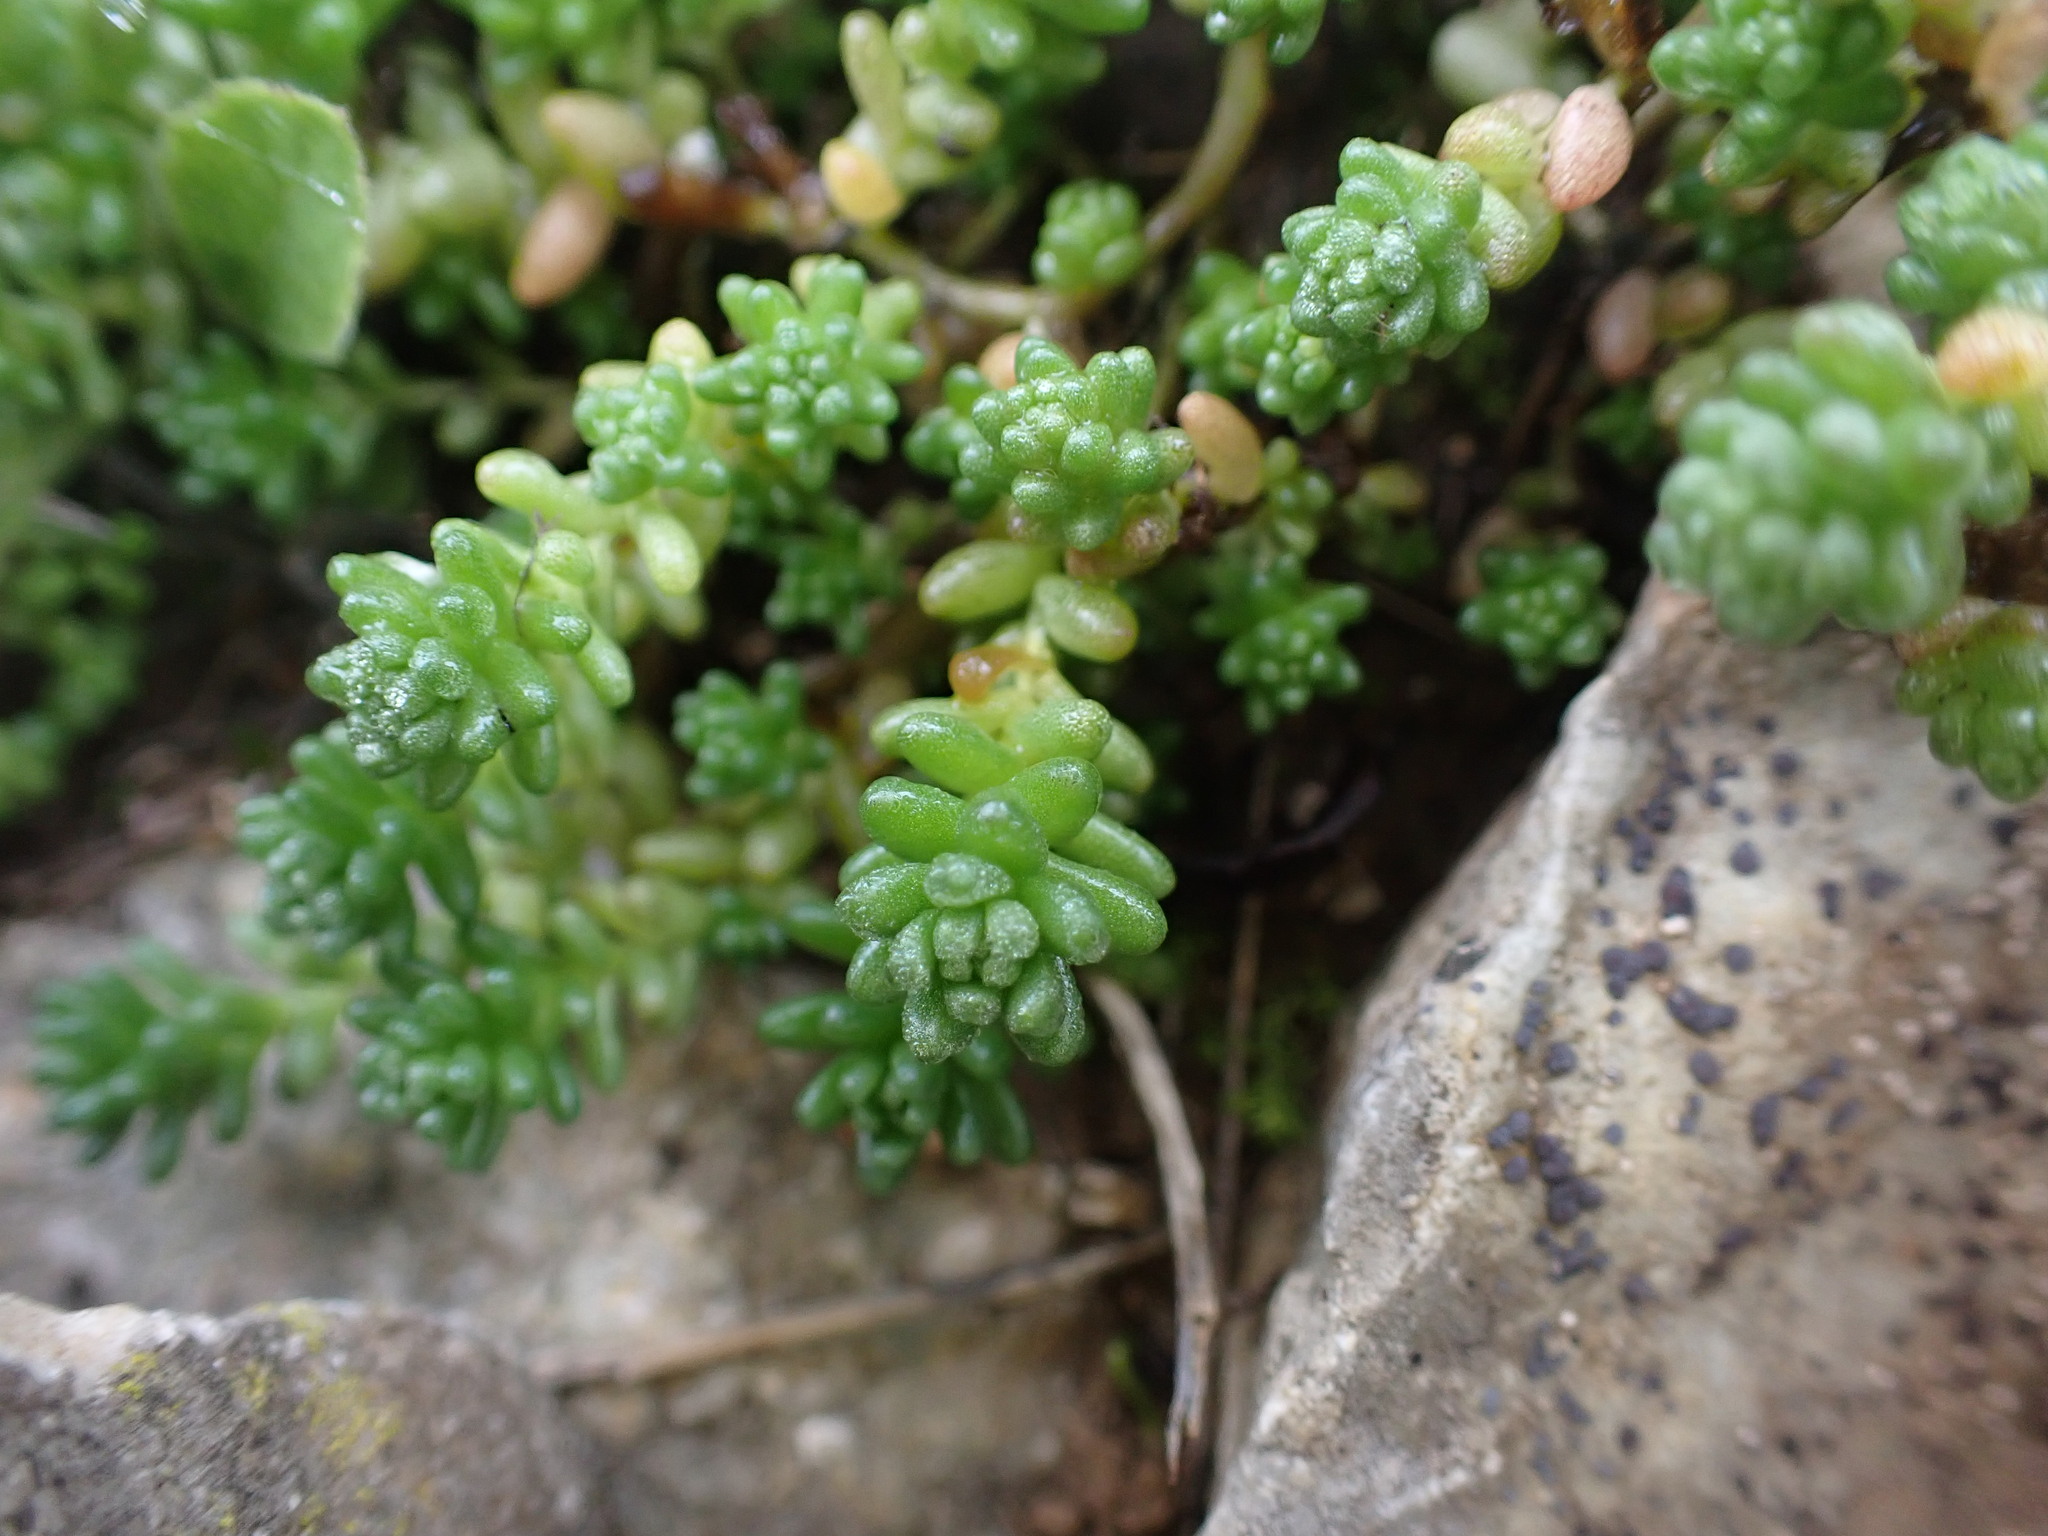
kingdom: Plantae
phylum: Tracheophyta
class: Magnoliopsida
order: Saxifragales
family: Crassulaceae
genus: Sedum
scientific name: Sedum acre
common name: Biting stonecrop
